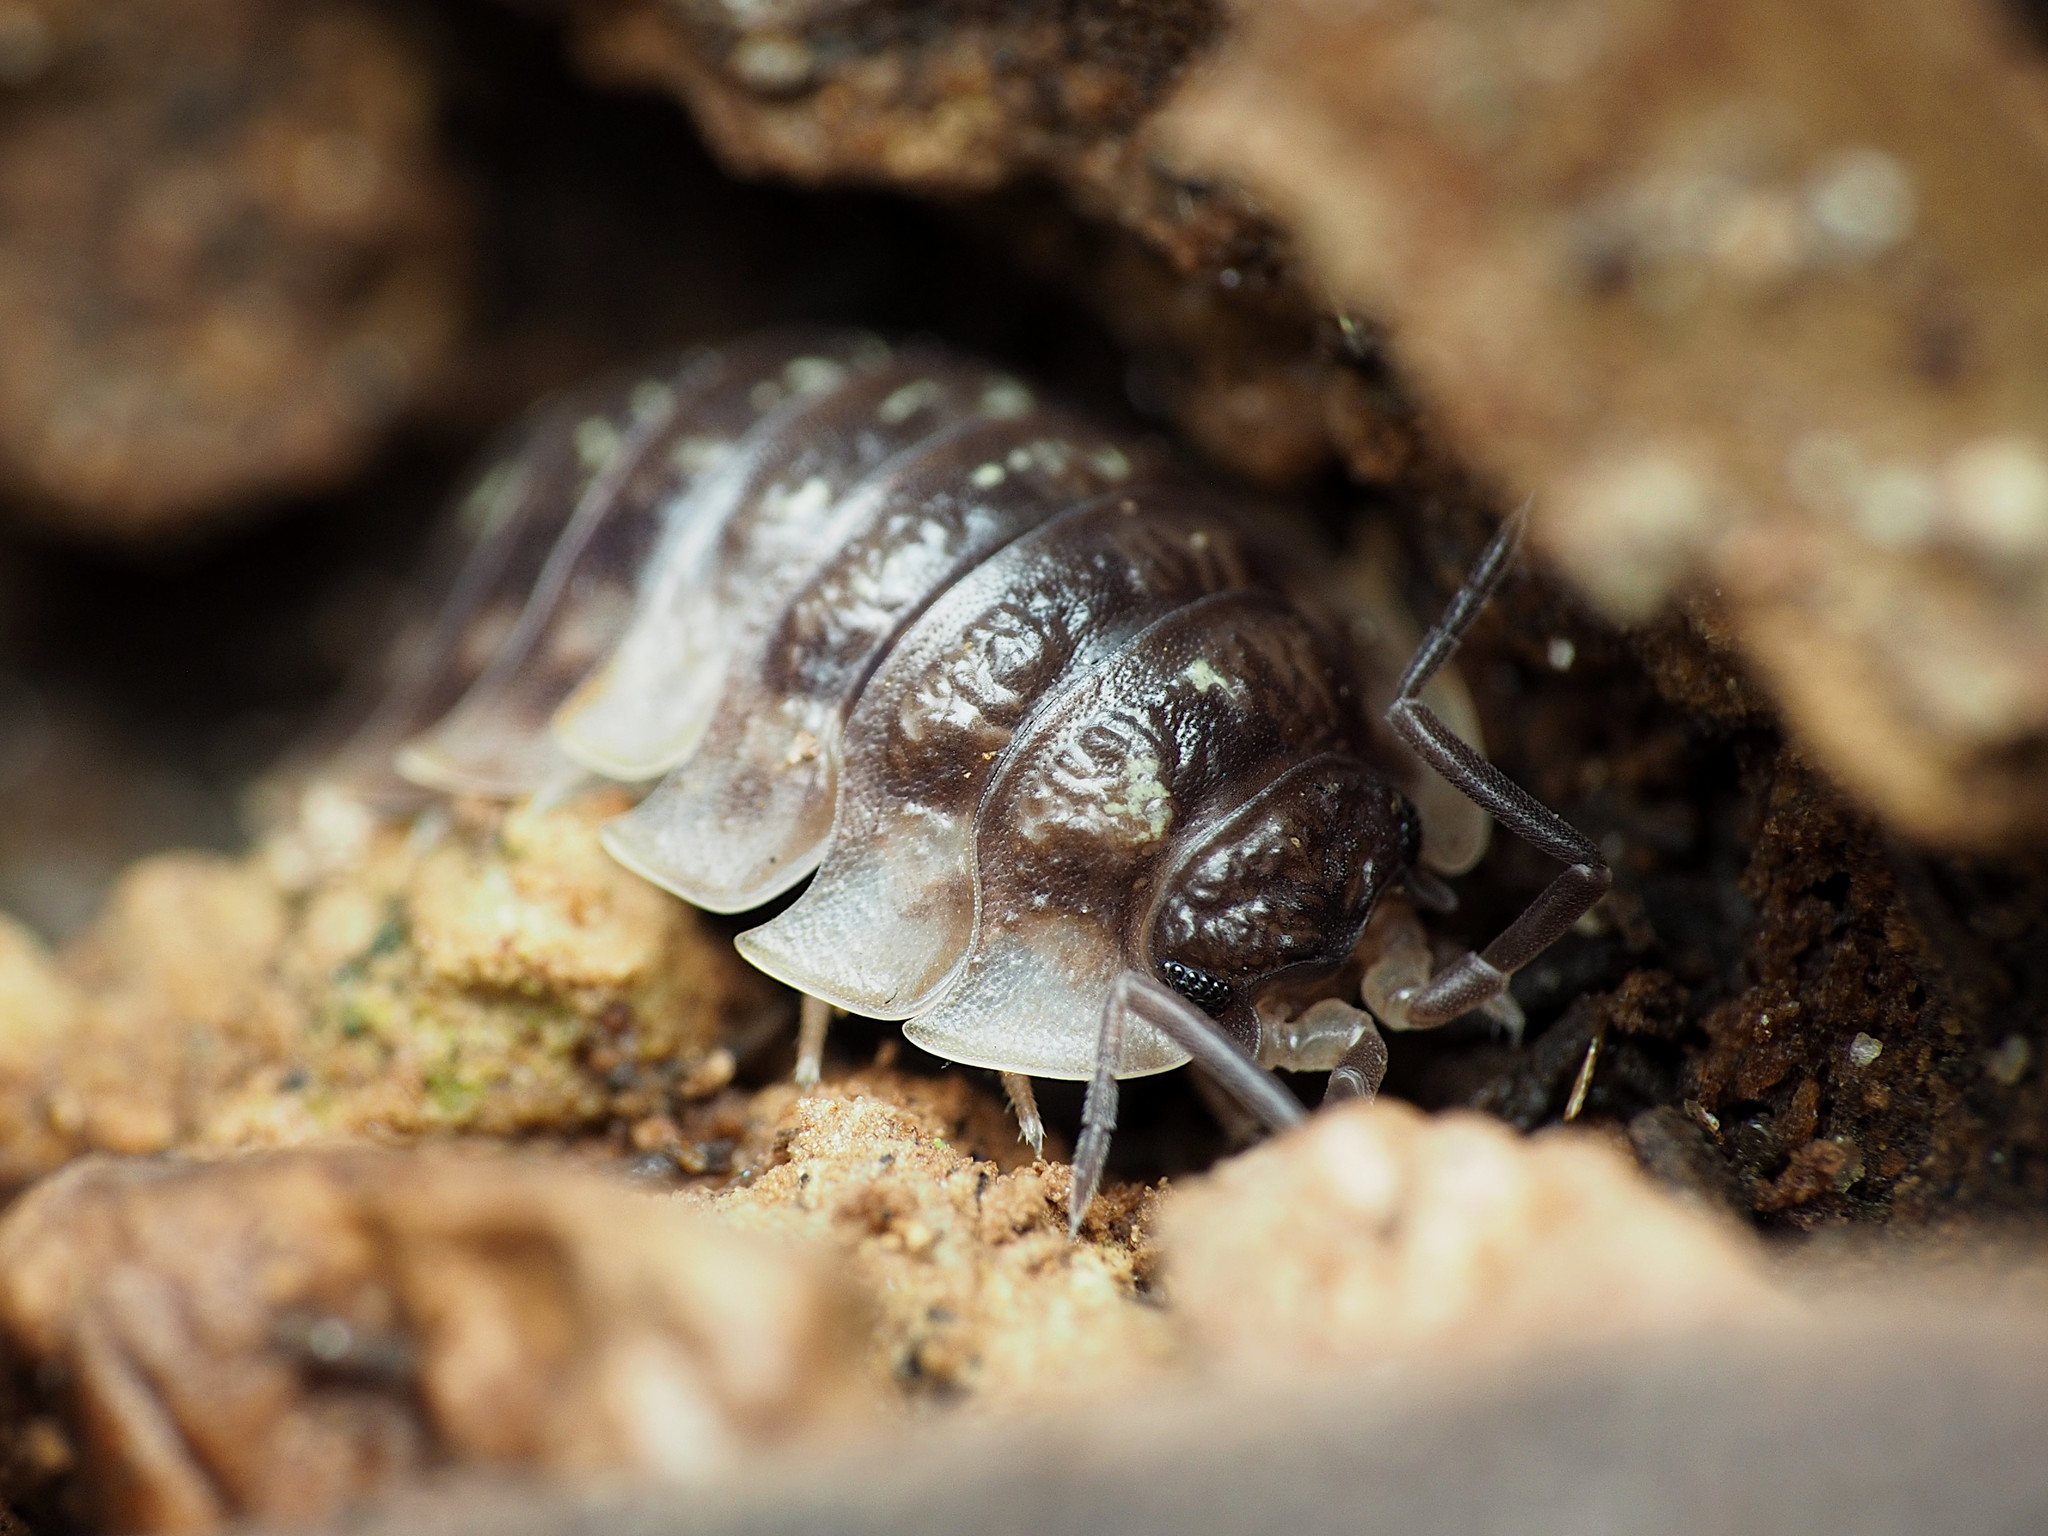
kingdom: Animalia
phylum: Arthropoda
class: Malacostraca
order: Isopoda
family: Oniscidae
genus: Oniscus
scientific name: Oniscus asellus
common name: Common shiny woodlouse
